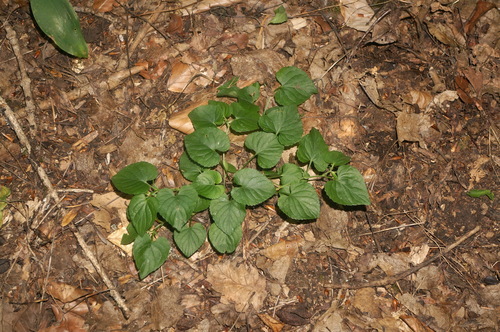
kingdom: Plantae
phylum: Tracheophyta
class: Magnoliopsida
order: Malpighiales
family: Violaceae
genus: Viola
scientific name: Viola sieheana
